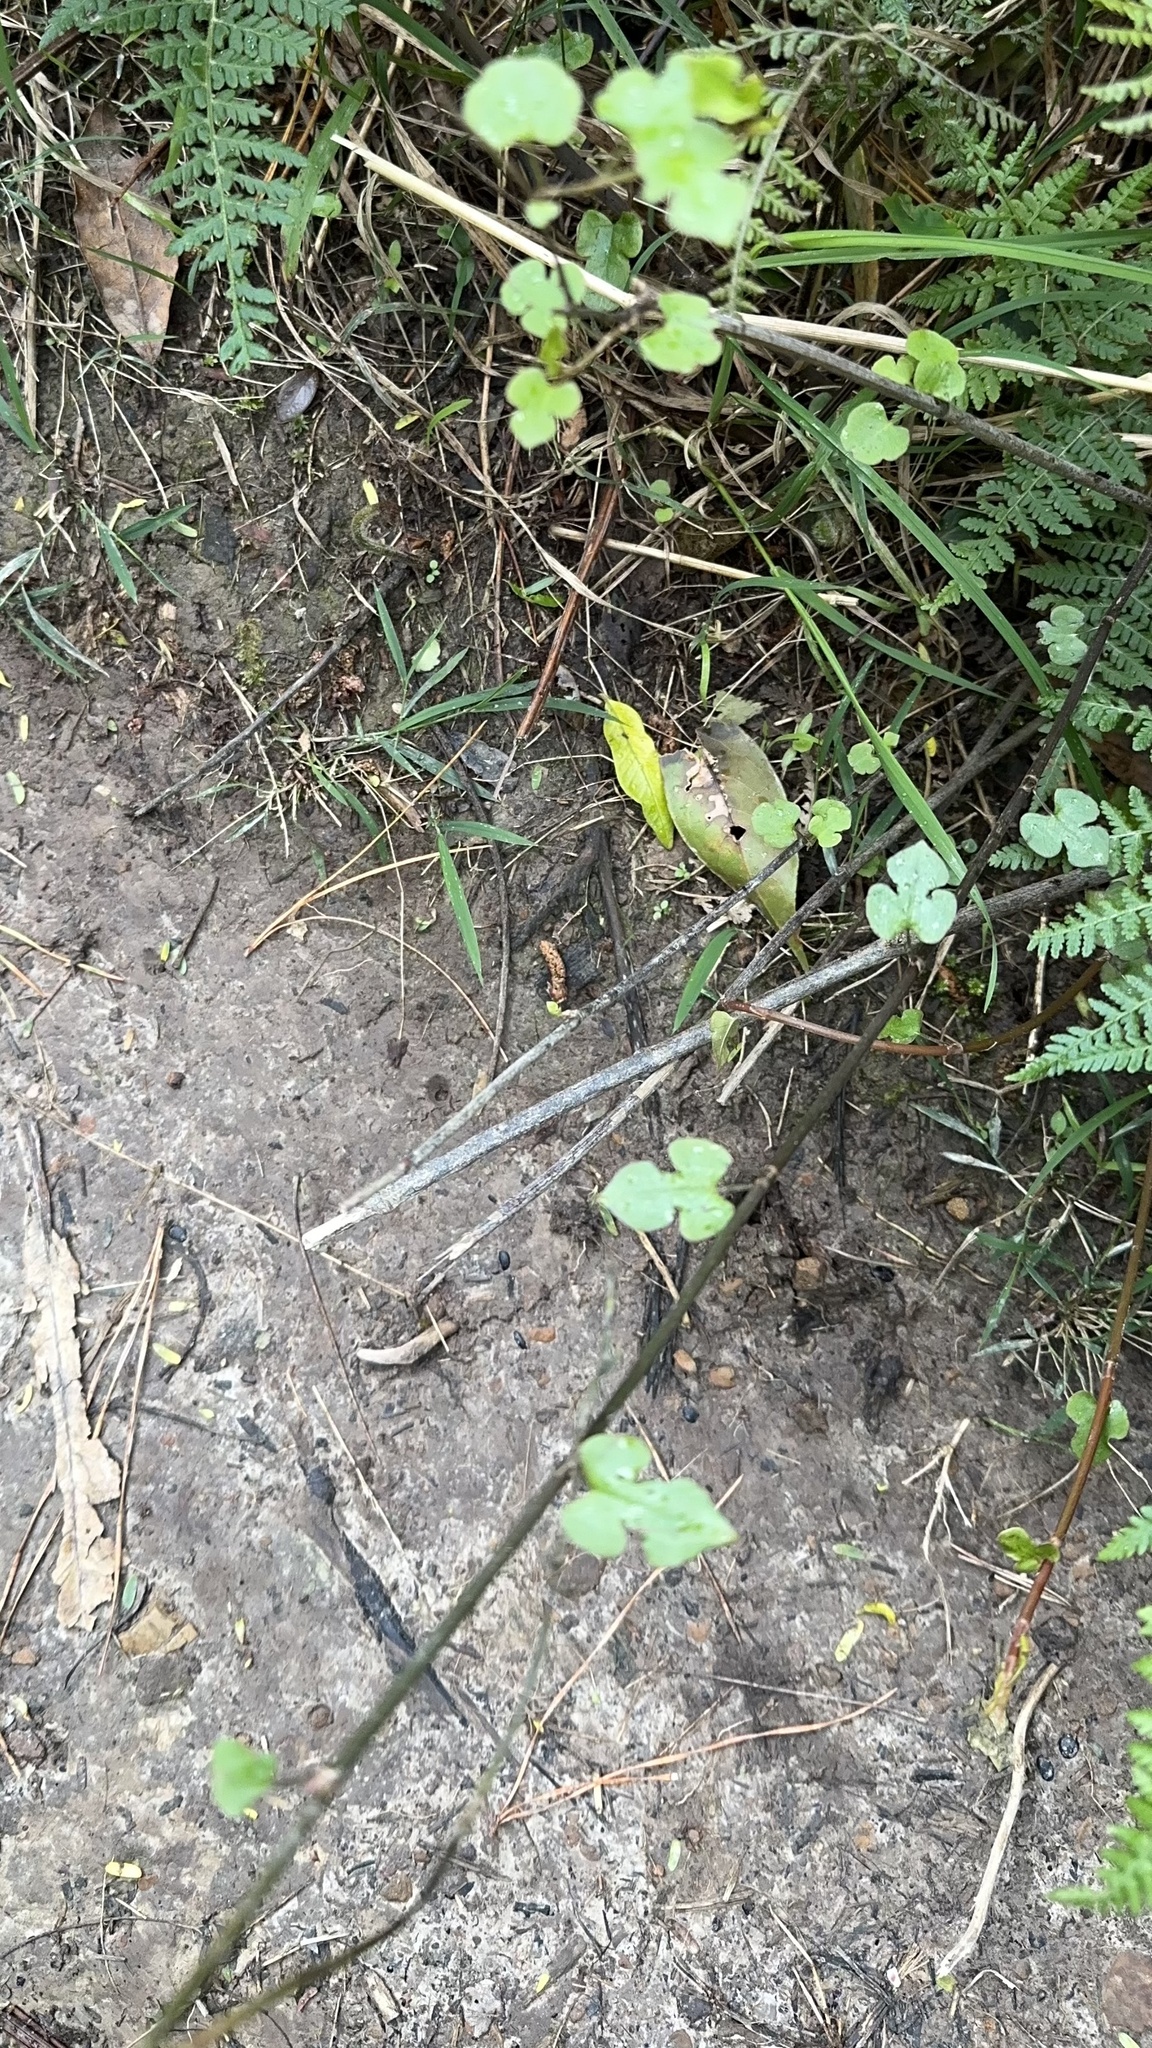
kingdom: Plantae
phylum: Tracheophyta
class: Magnoliopsida
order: Caryophyllales
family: Polygonaceae
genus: Muehlenbeckia
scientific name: Muehlenbeckia australis
